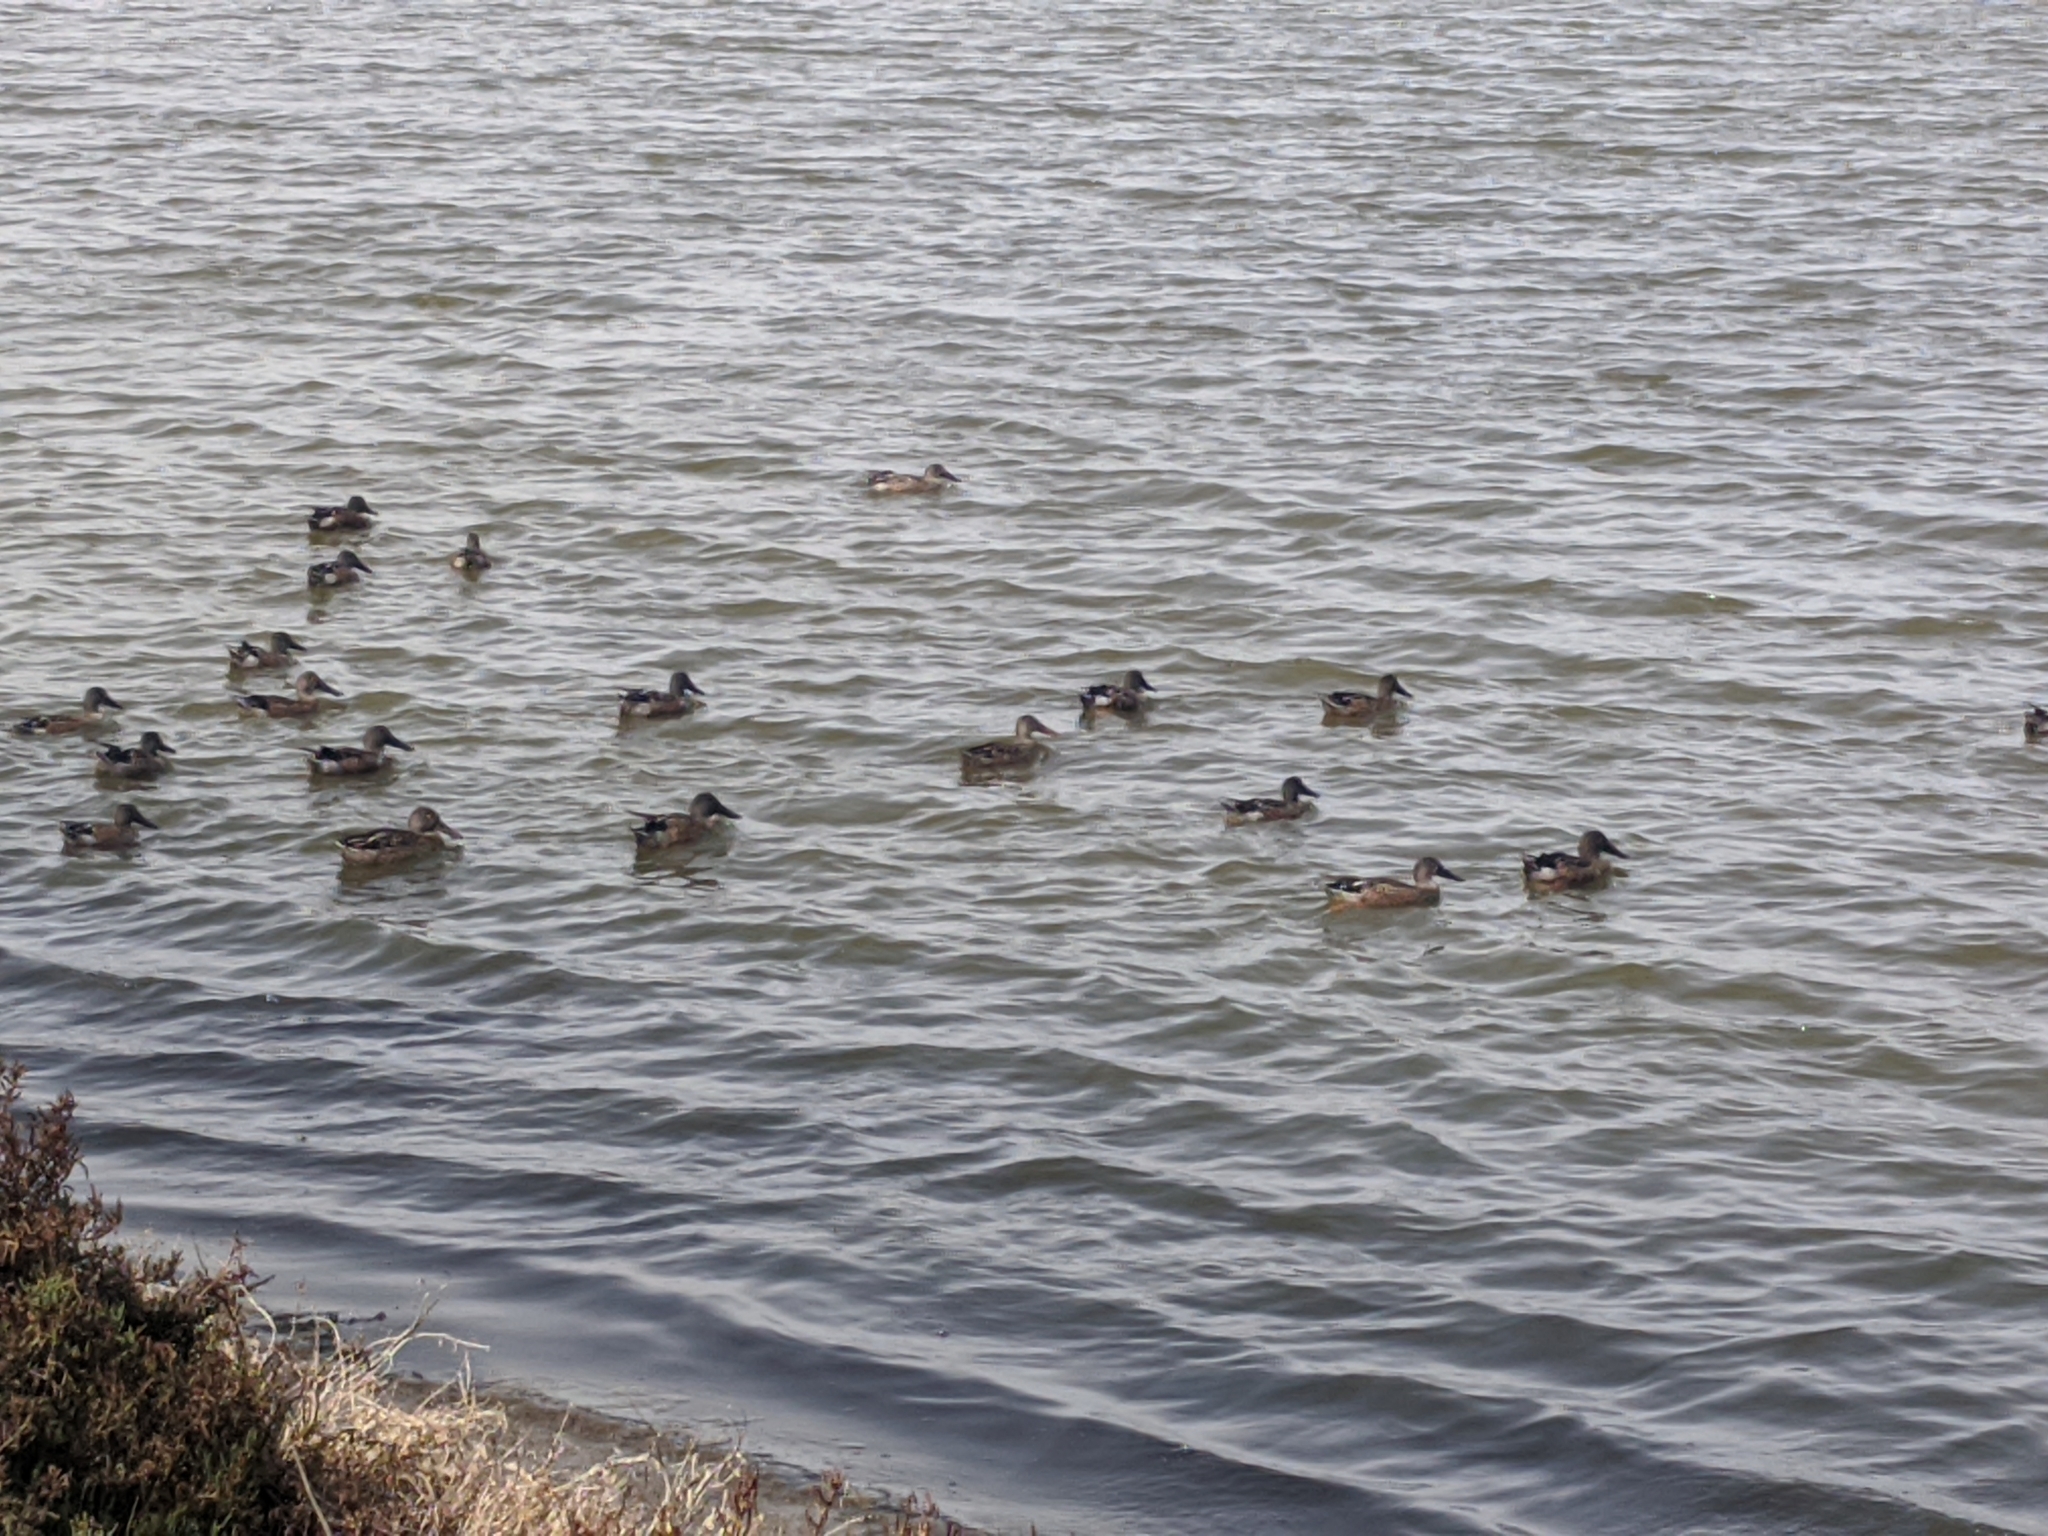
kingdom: Animalia
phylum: Chordata
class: Aves
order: Anseriformes
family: Anatidae
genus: Spatula
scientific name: Spatula clypeata
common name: Northern shoveler
